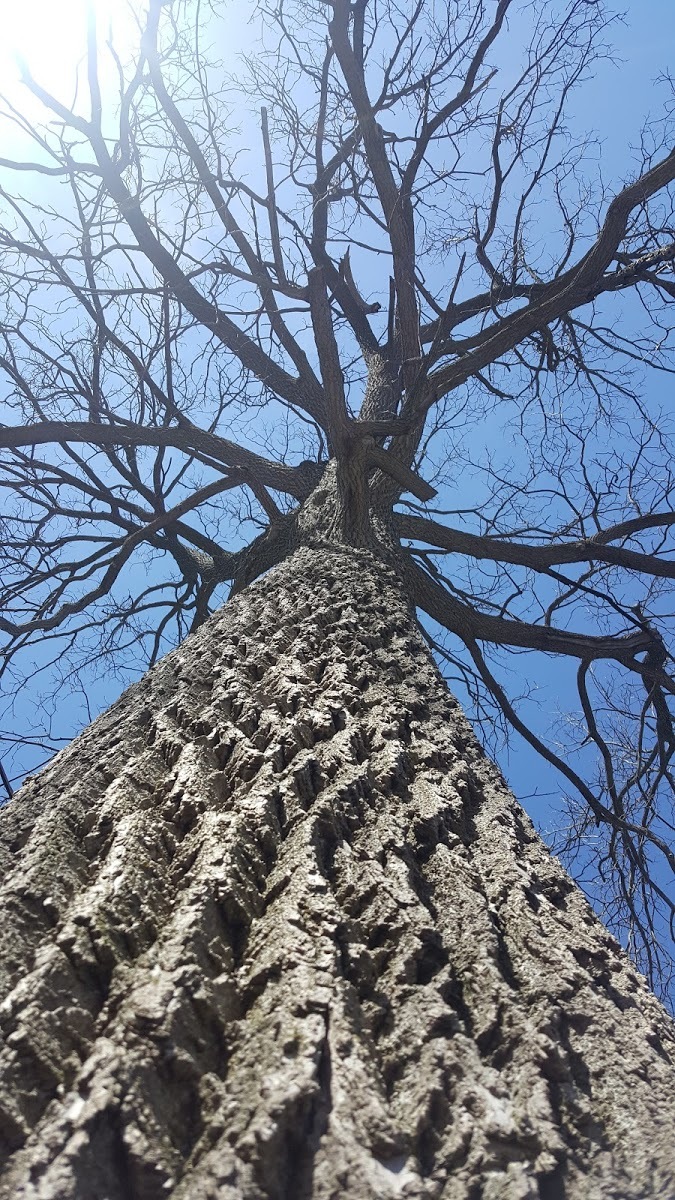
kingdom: Plantae
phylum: Tracheophyta
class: Magnoliopsida
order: Fagales
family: Juglandaceae
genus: Juglans
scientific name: Juglans nigra
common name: Black walnut
